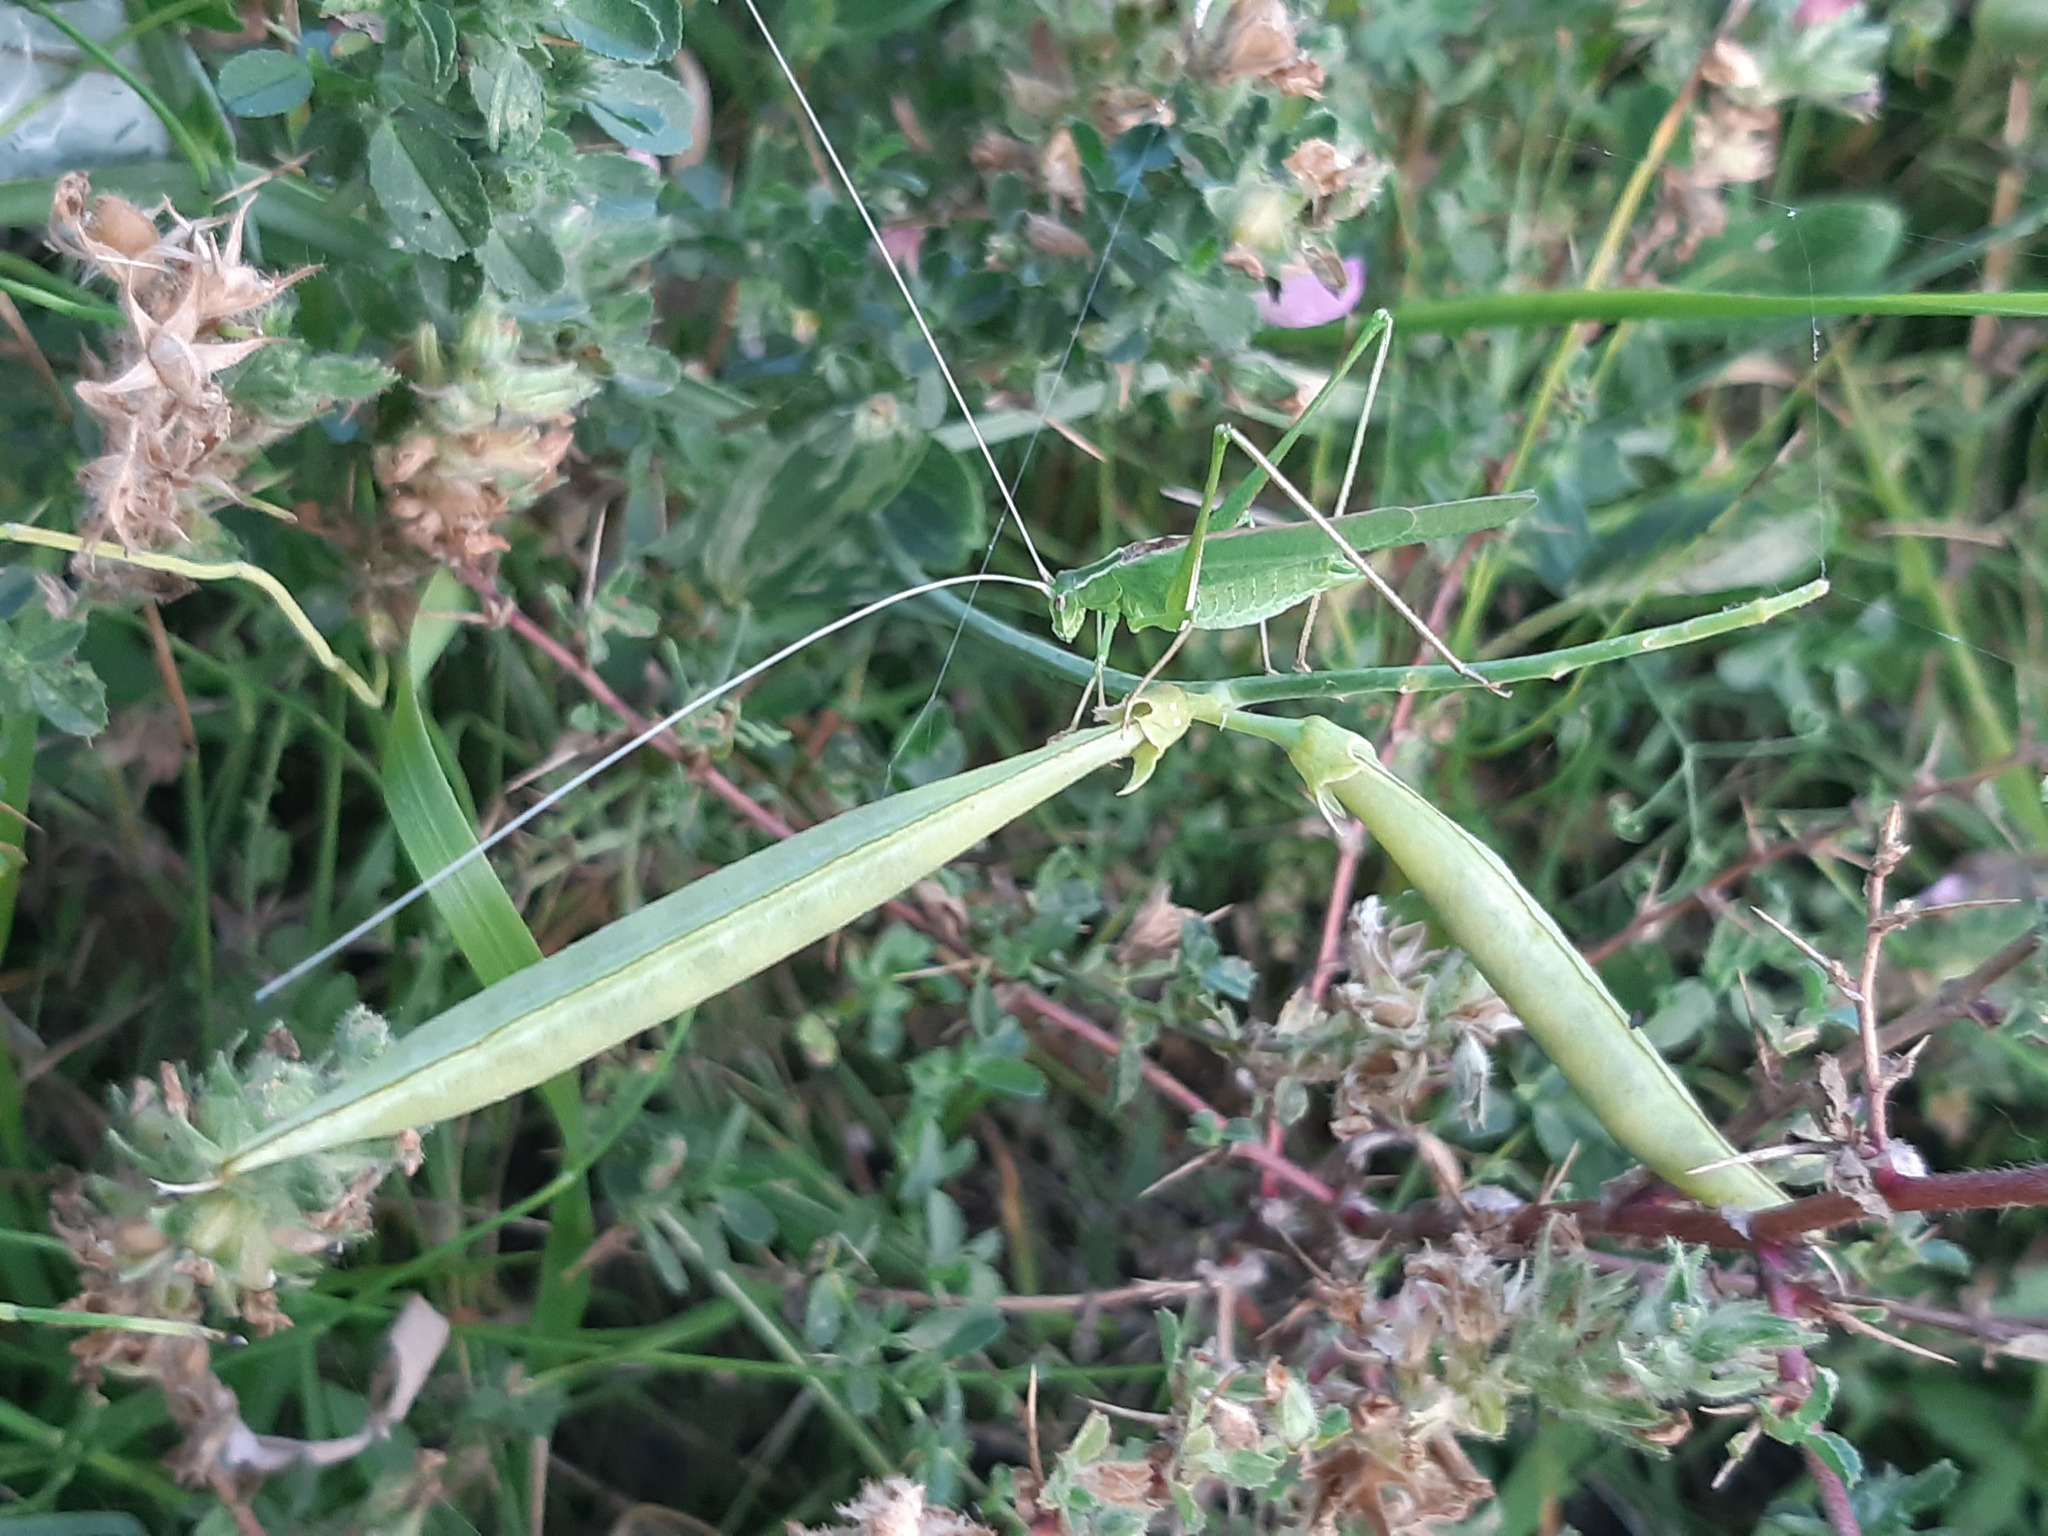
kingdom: Animalia
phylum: Arthropoda
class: Insecta
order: Orthoptera
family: Tettigoniidae
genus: Tylopsis
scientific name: Tylopsis lilifolia
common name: Lily bush-cricket
